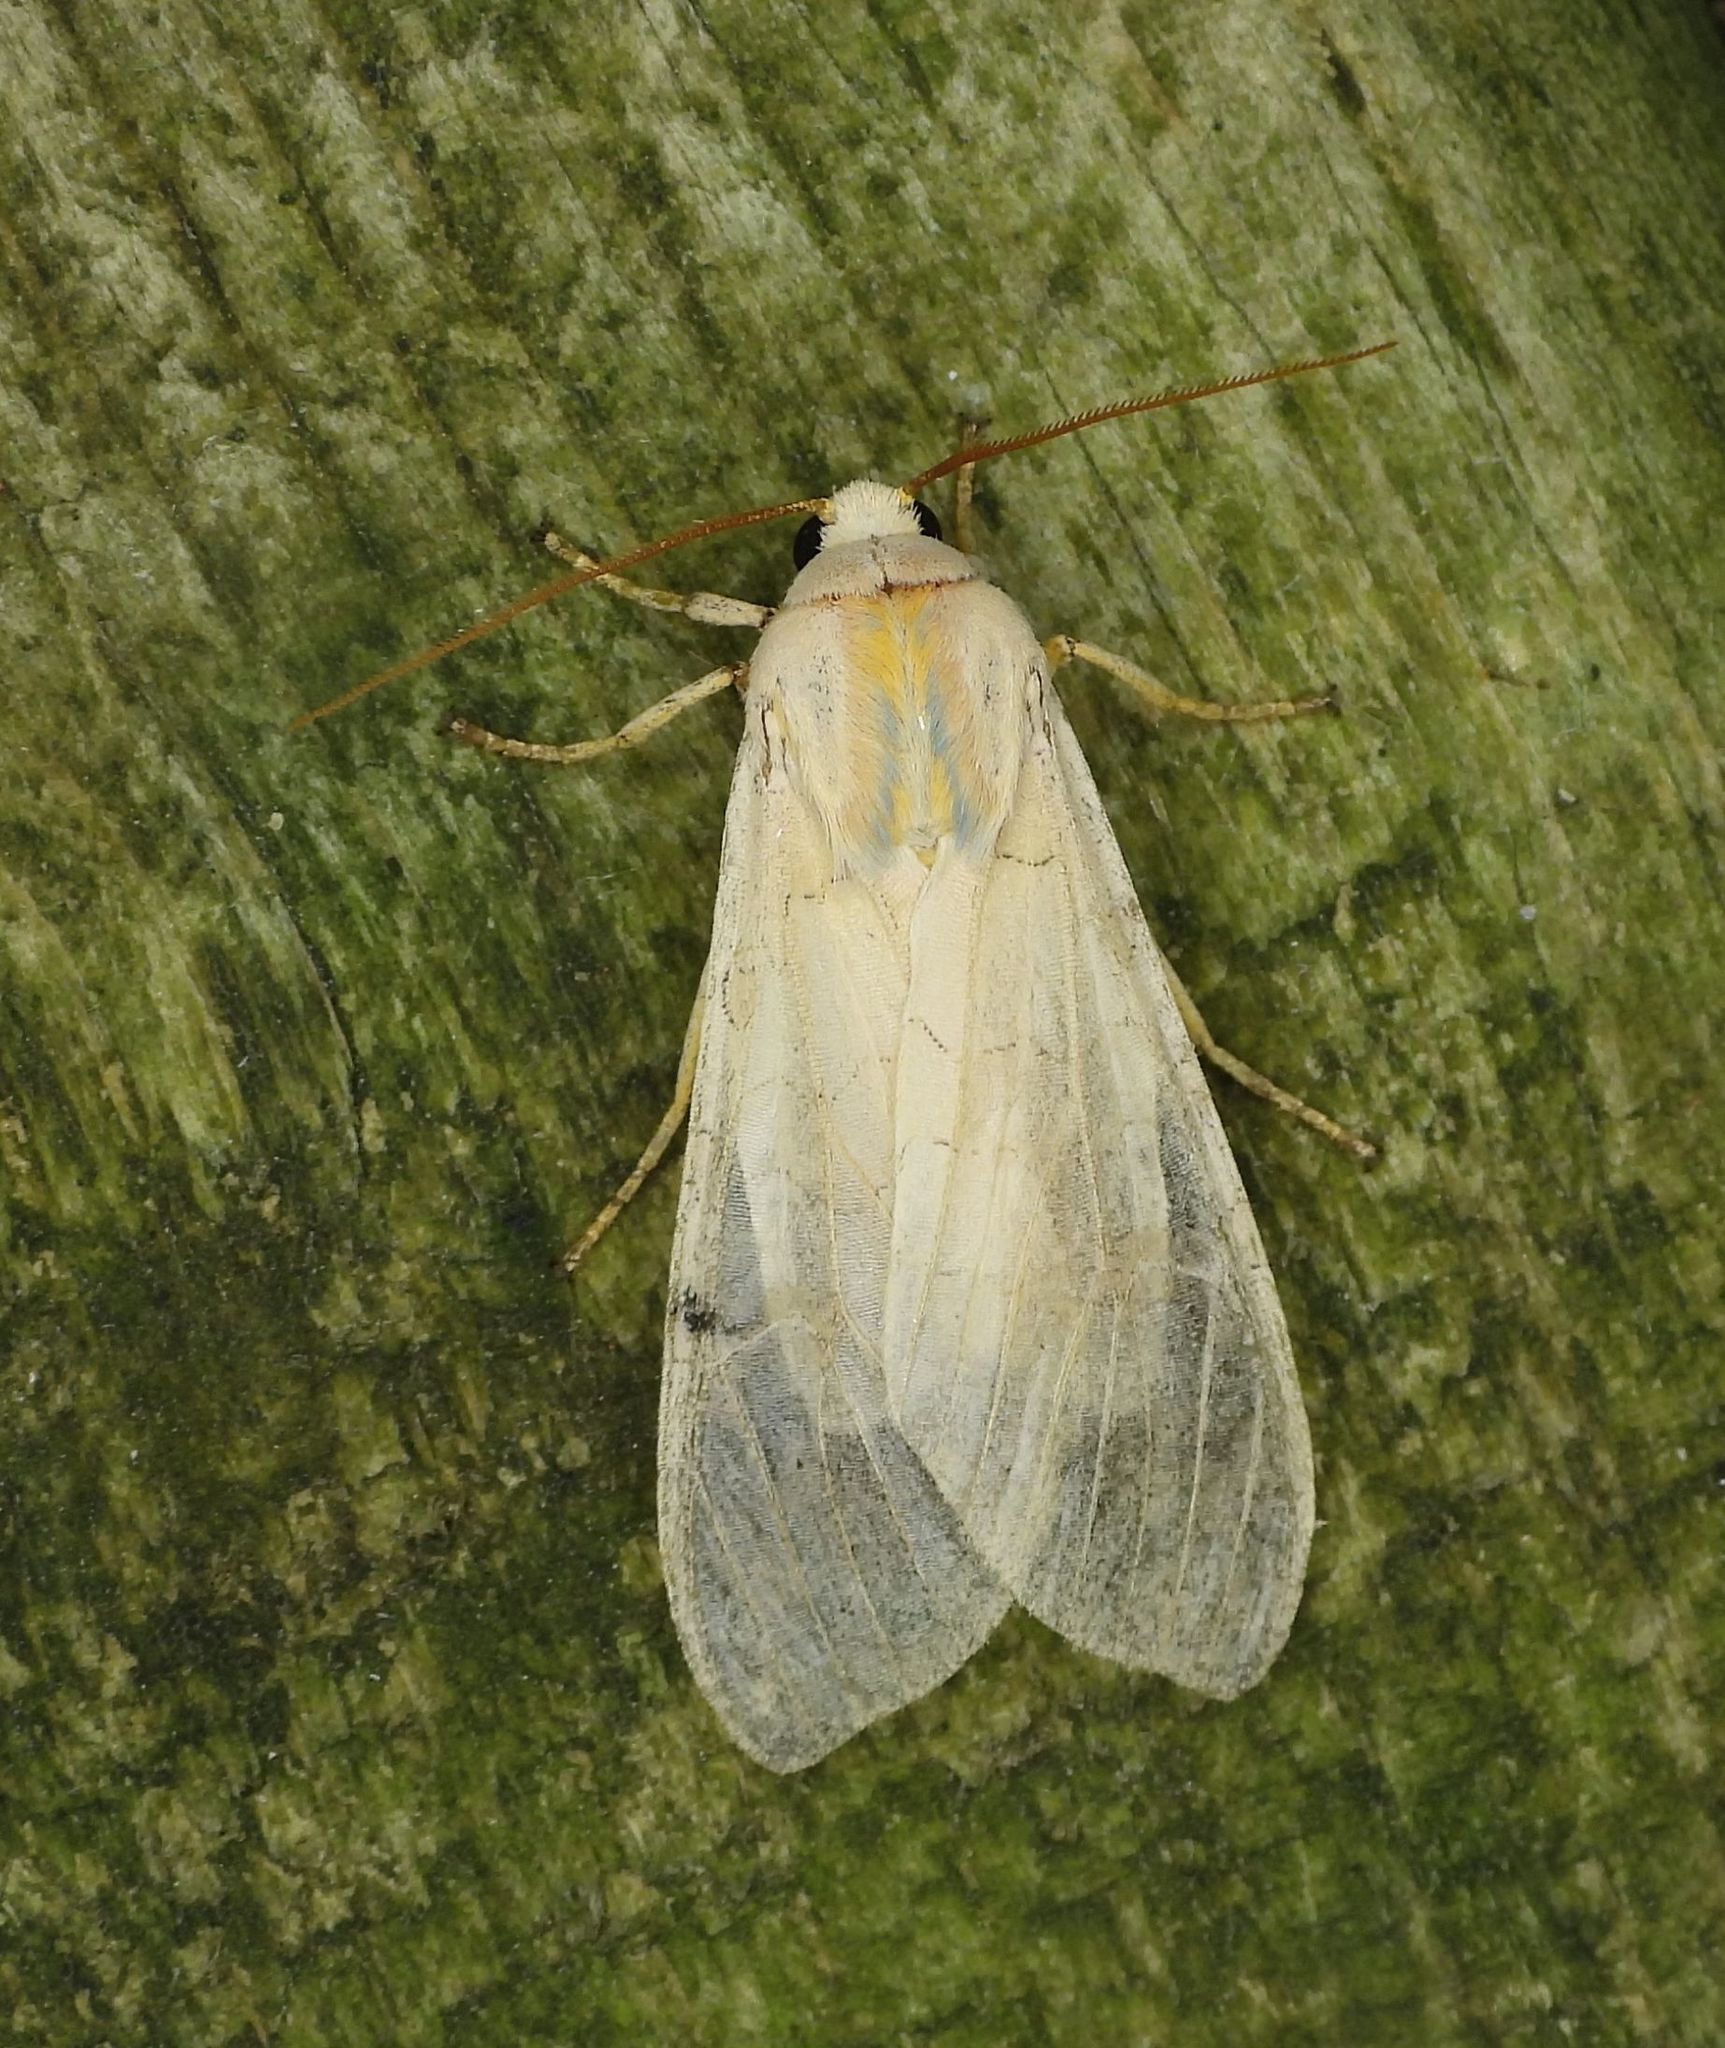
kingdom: Animalia
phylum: Arthropoda
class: Insecta
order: Lepidoptera
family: Erebidae
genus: Halysidota
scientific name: Halysidota tessellaris
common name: Banded tussock moth
